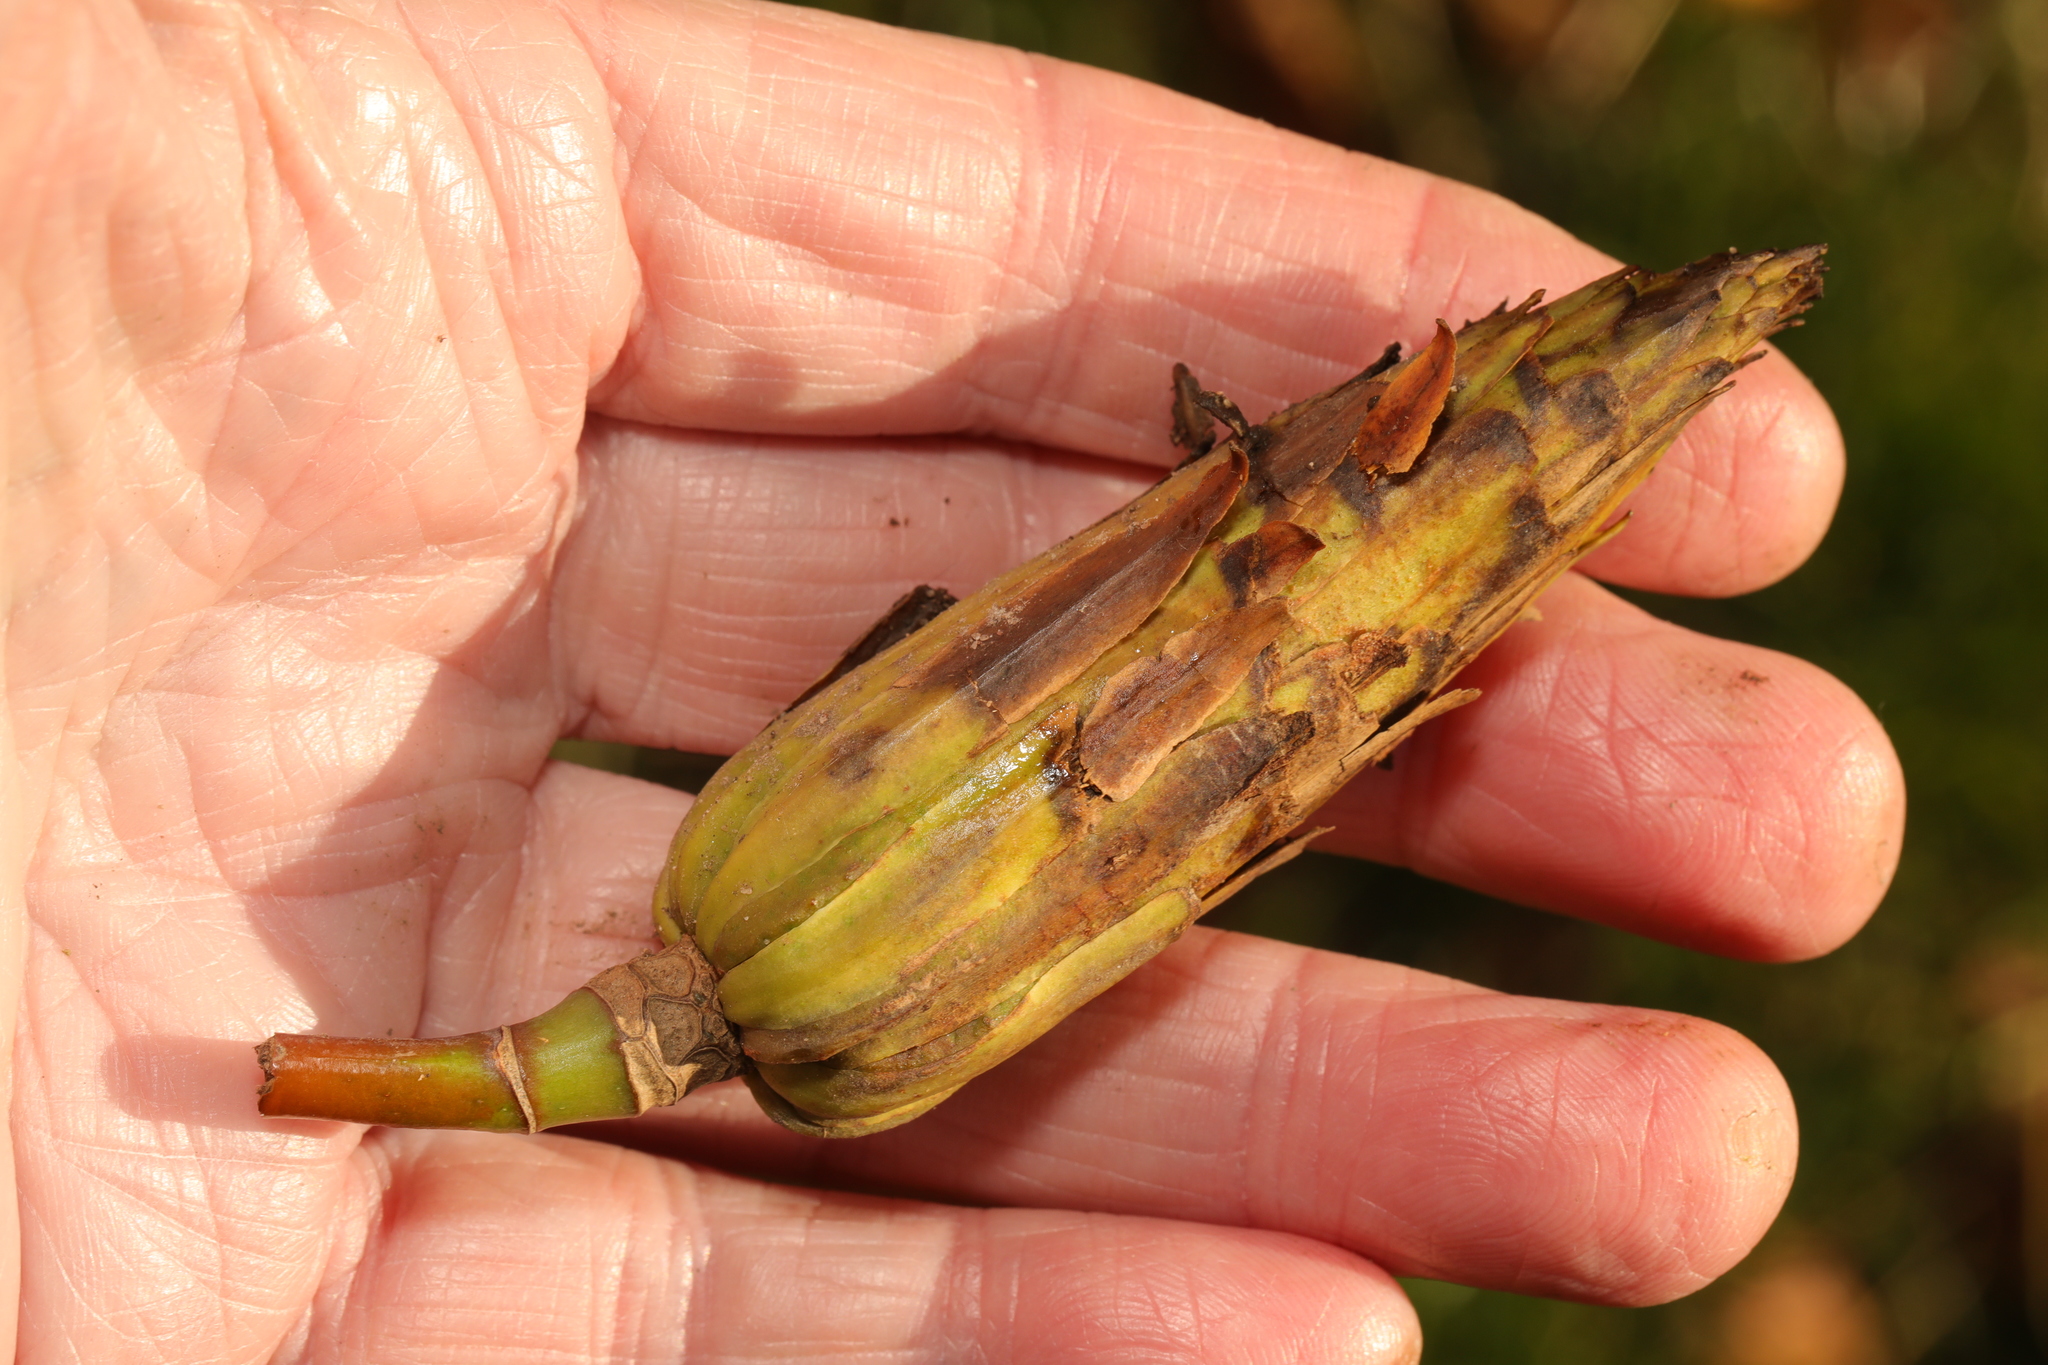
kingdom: Plantae
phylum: Tracheophyta
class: Magnoliopsida
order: Magnoliales
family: Magnoliaceae
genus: Liriodendron
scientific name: Liriodendron tulipifera
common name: Tulip tree
